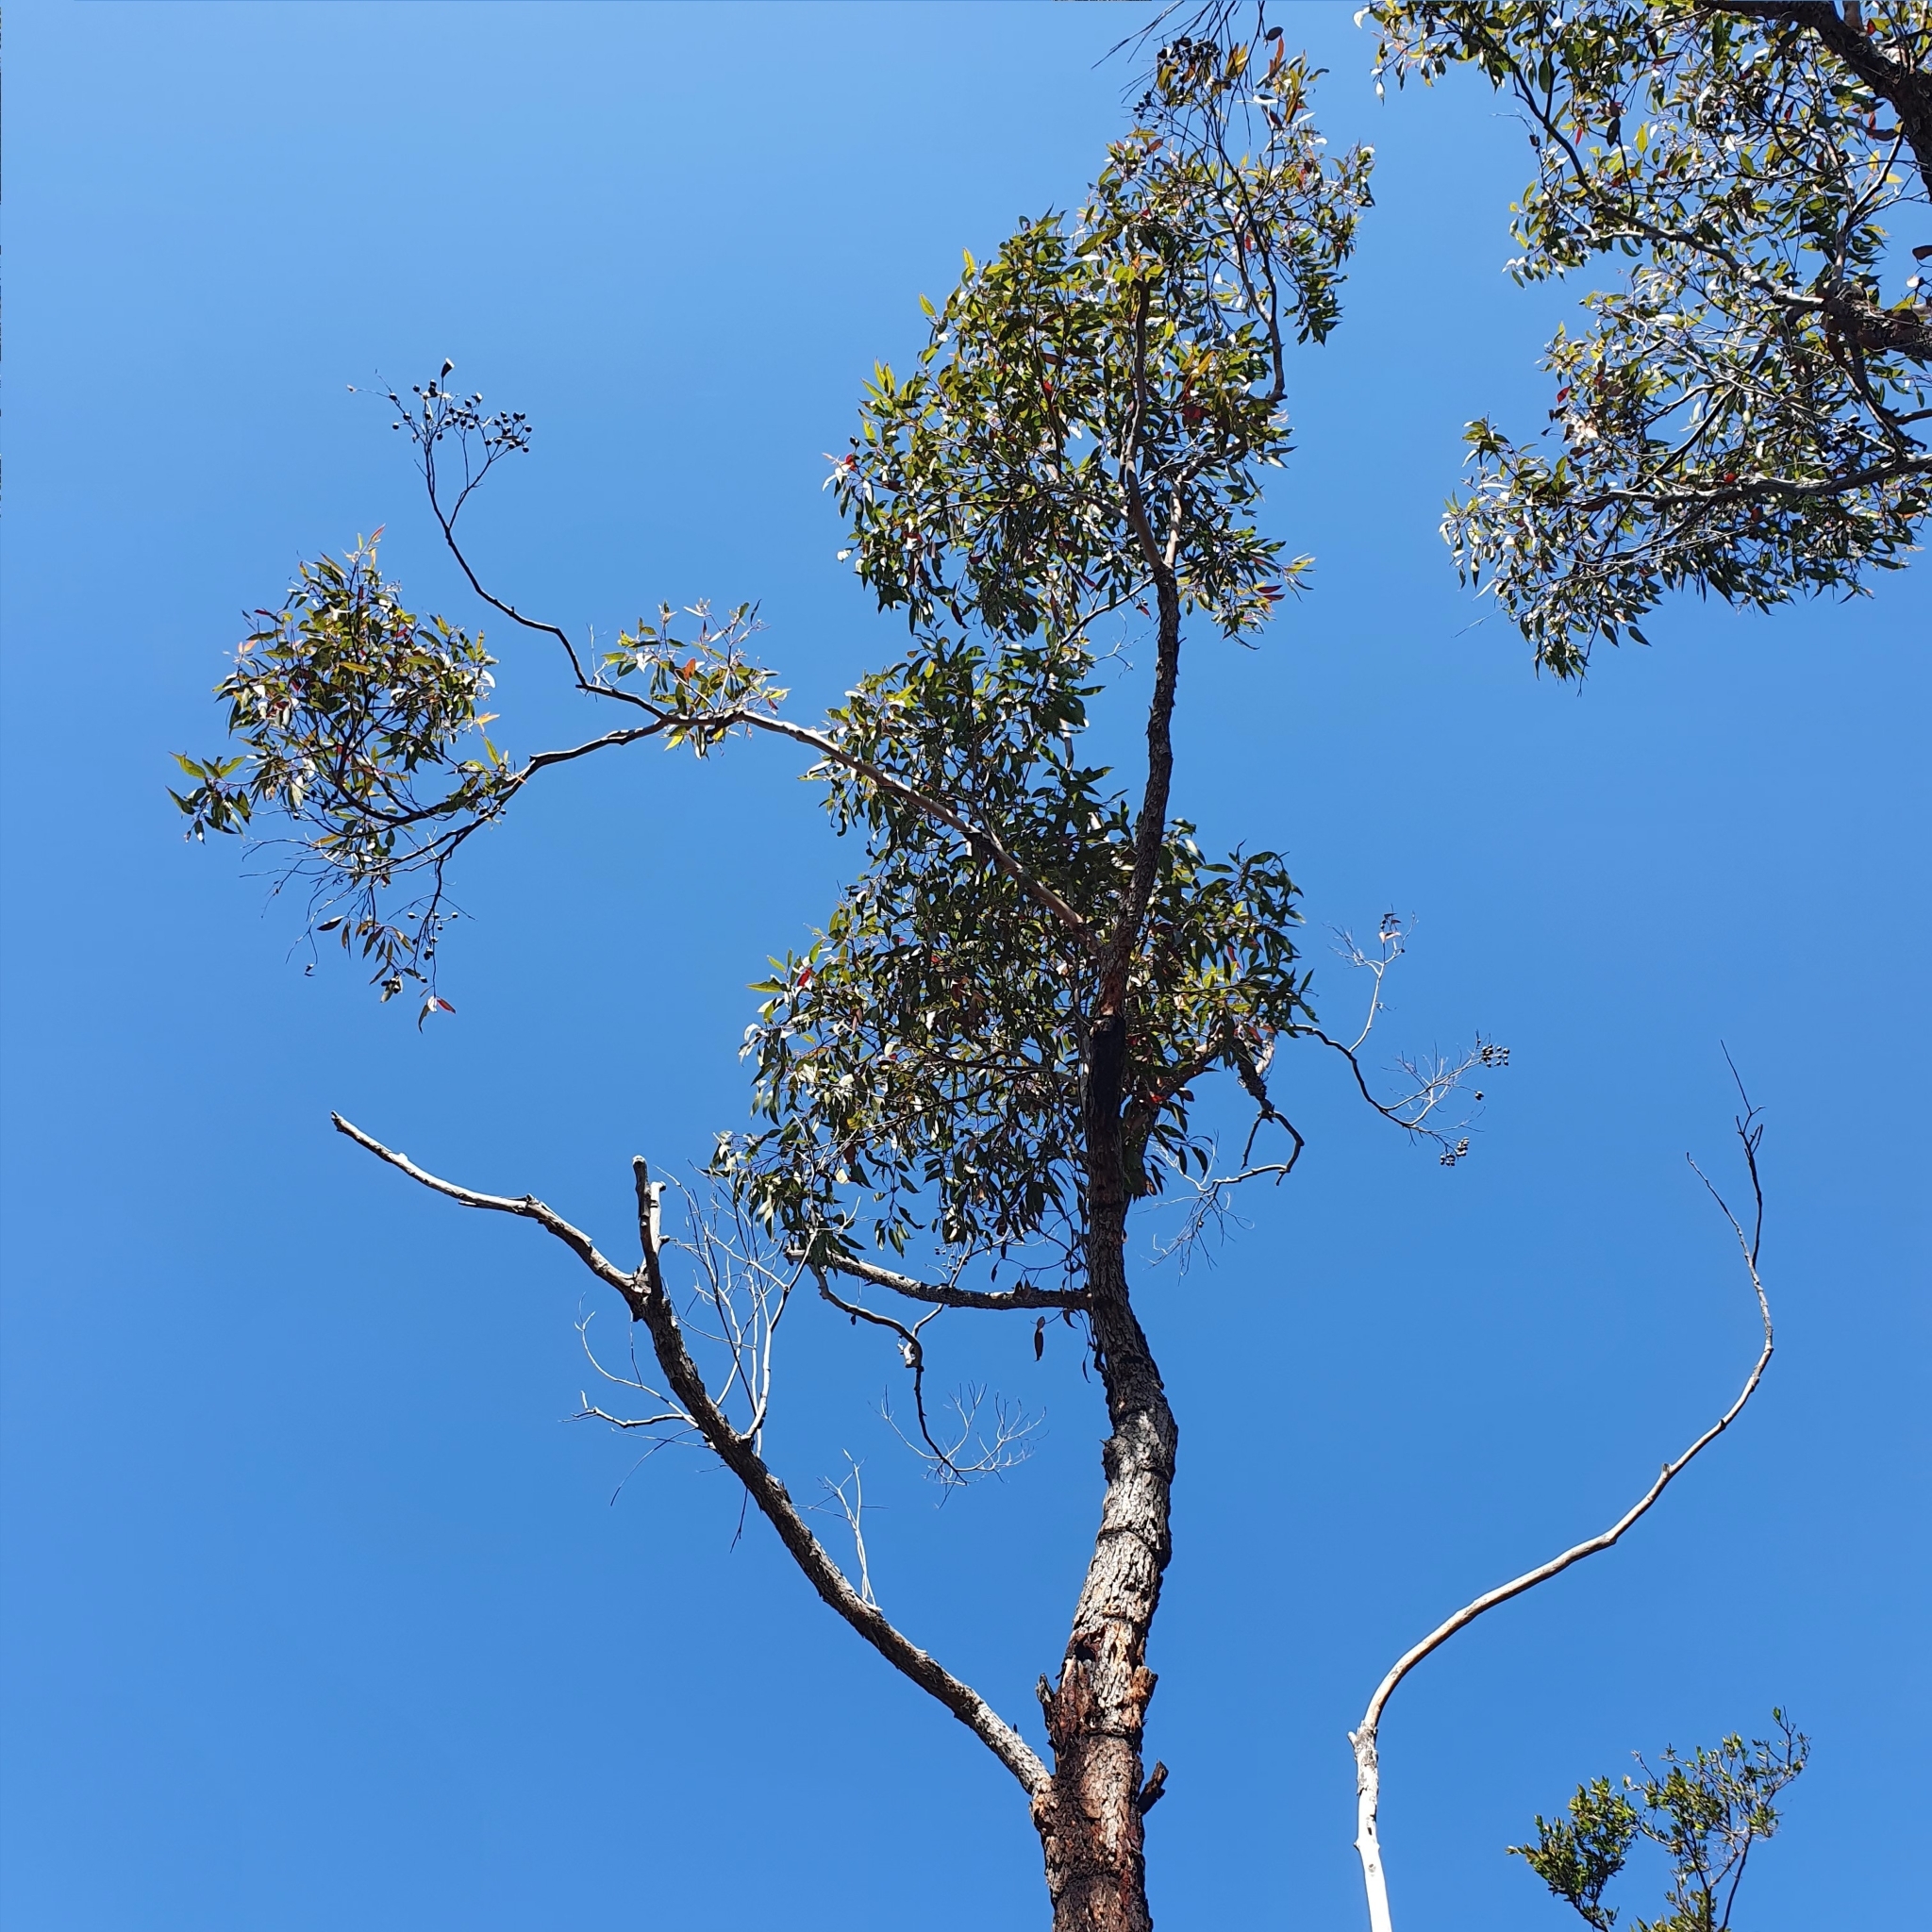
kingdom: Plantae
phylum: Tracheophyta
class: Magnoliopsida
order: Myrtales
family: Myrtaceae
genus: Corymbia
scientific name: Corymbia gummifera
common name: Red bloodwood
